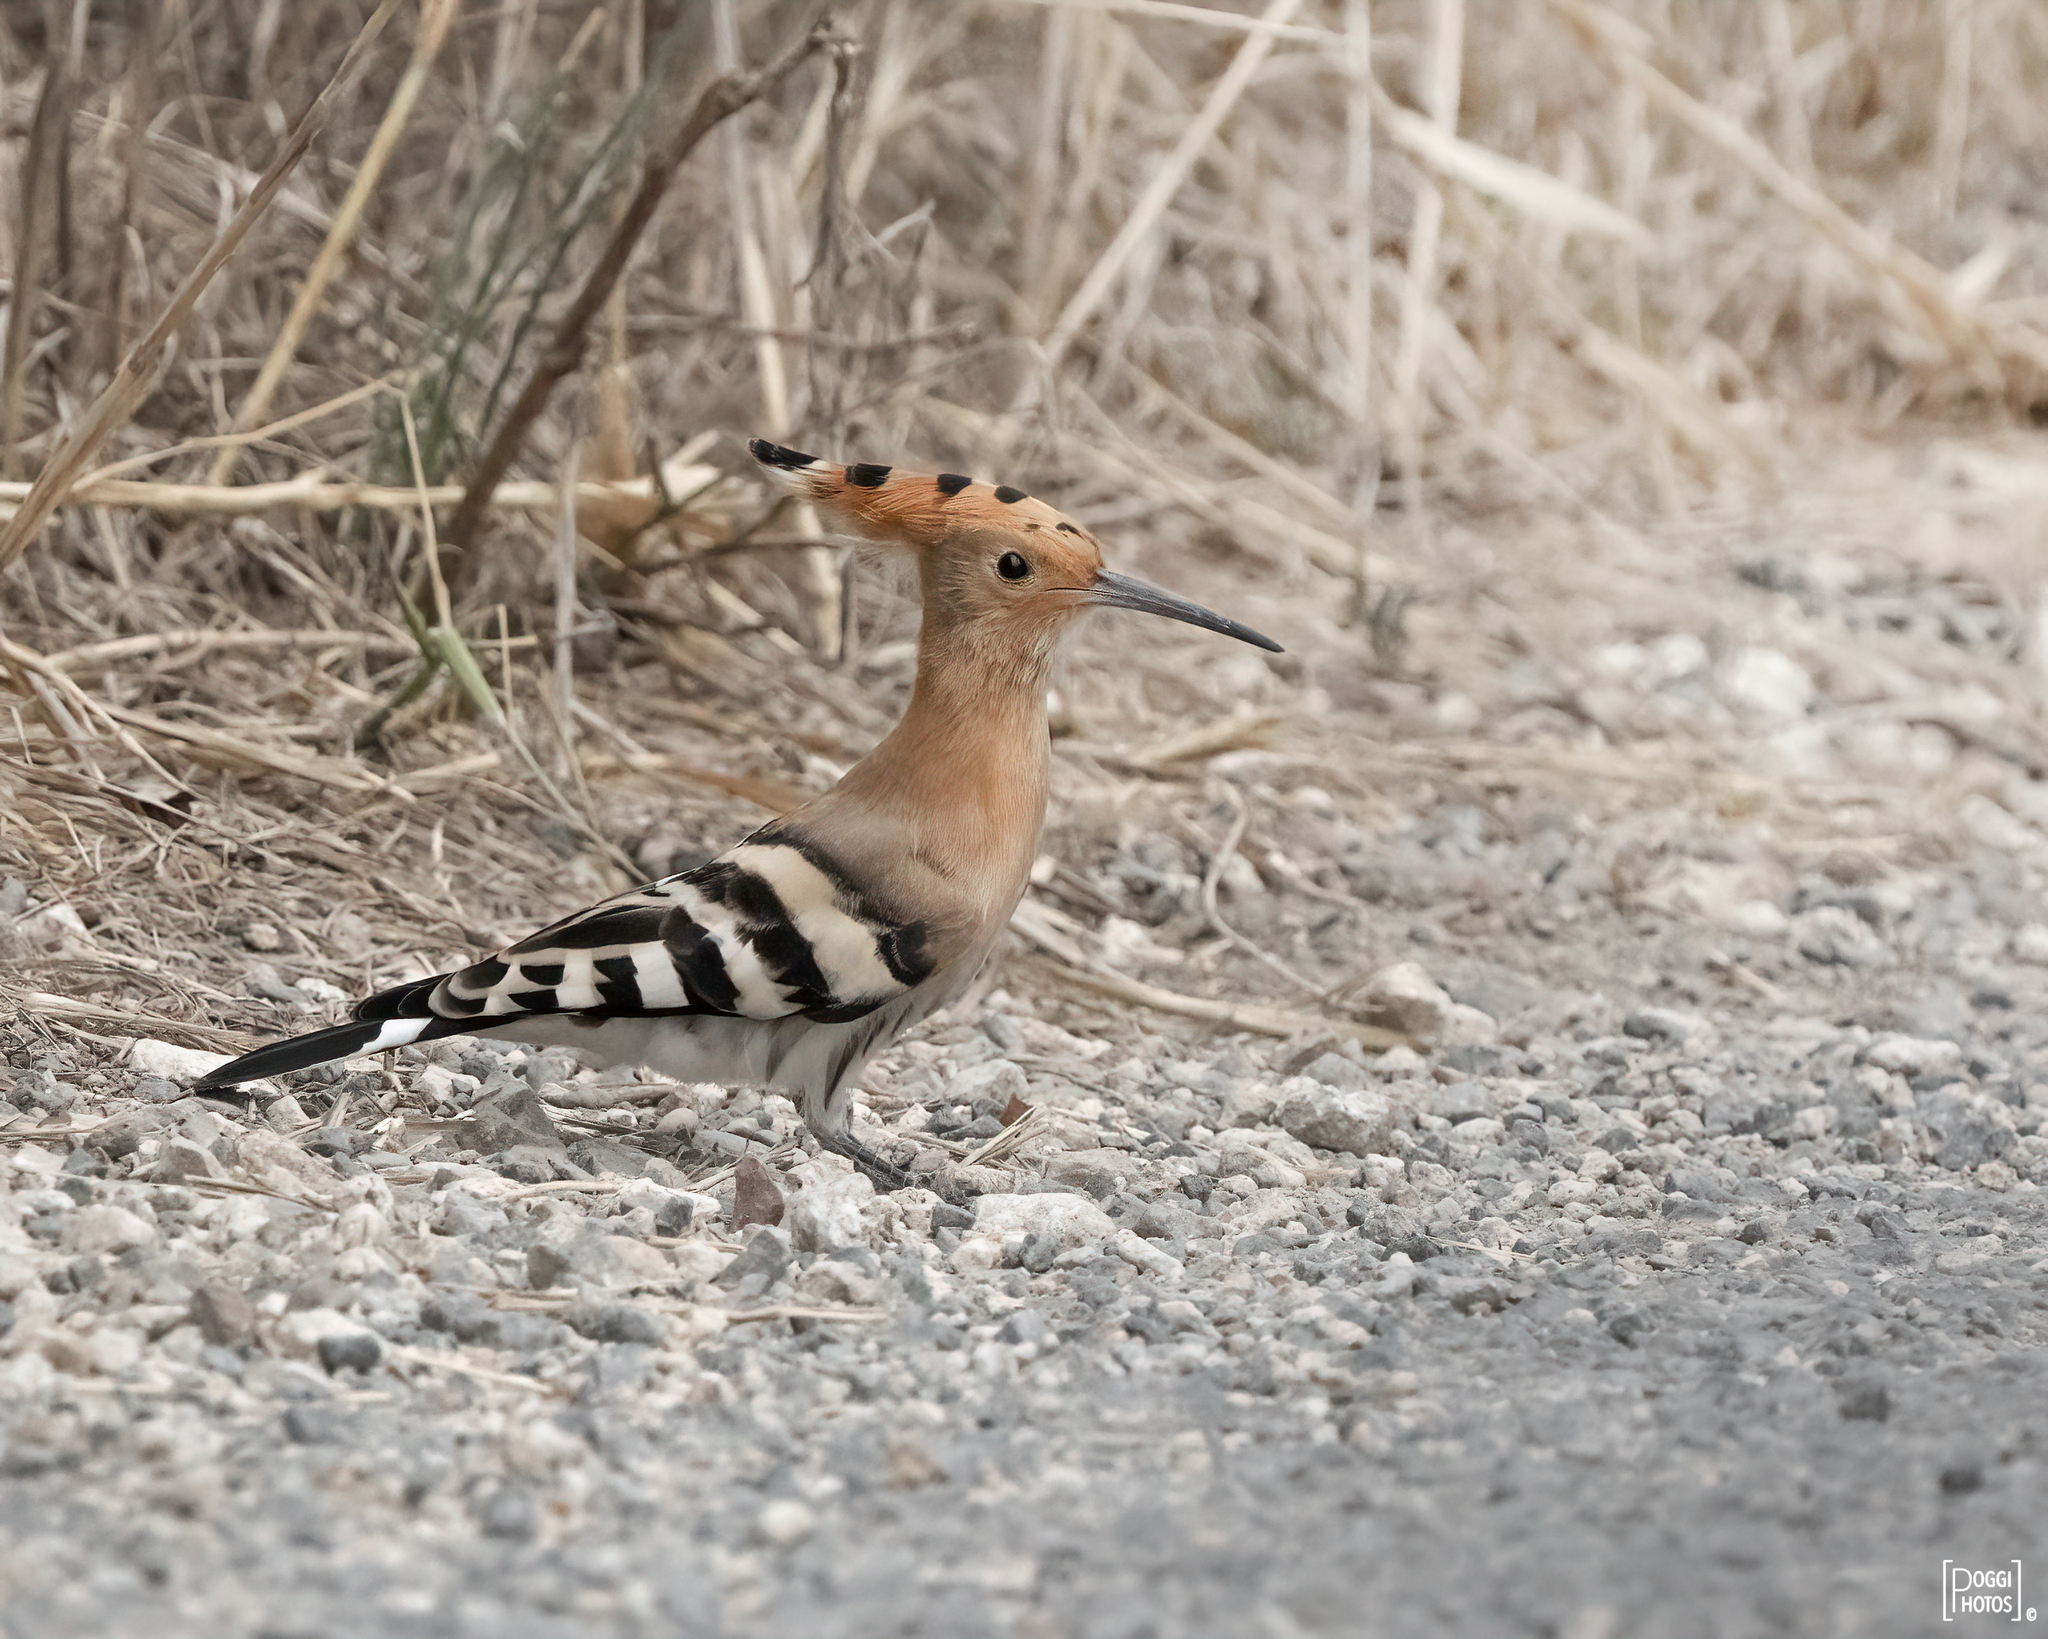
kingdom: Animalia
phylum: Chordata
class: Aves
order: Bucerotiformes
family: Upupidae
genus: Upupa
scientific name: Upupa epops
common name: Eurasian hoopoe
